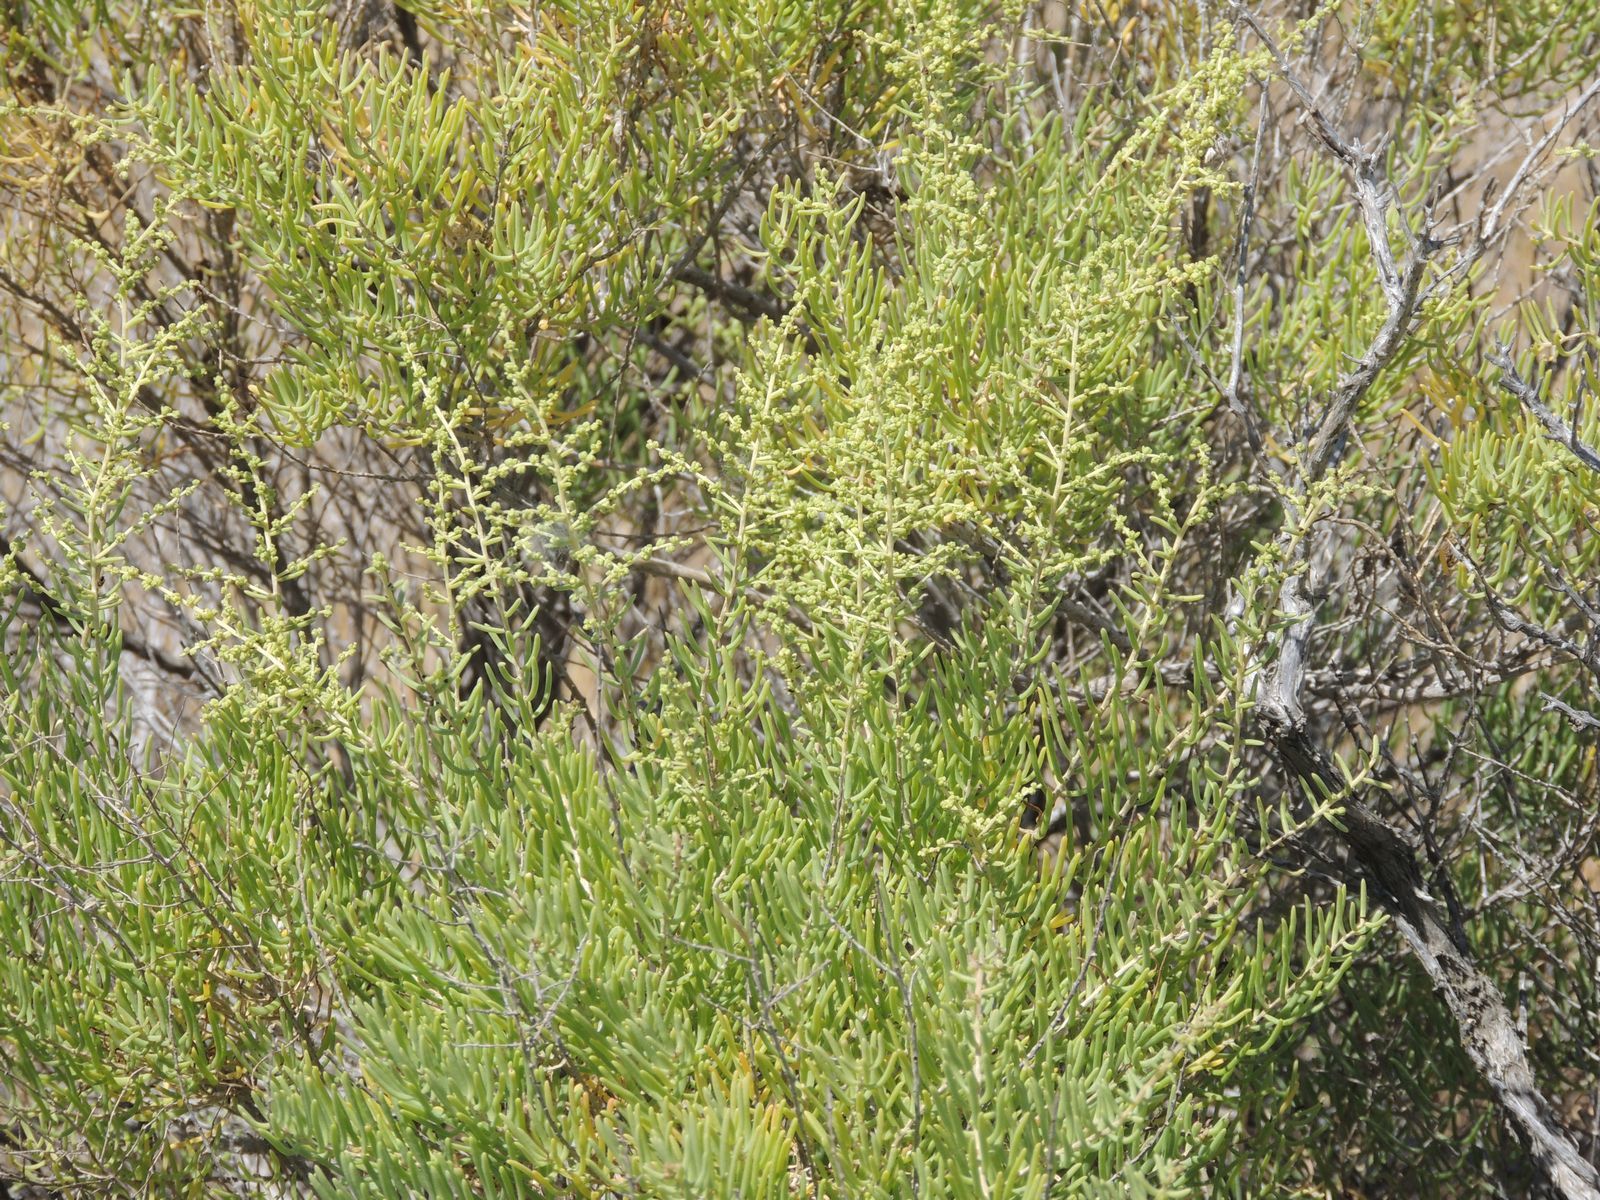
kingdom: Plantae
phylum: Tracheophyta
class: Magnoliopsida
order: Caryophyllales
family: Amaranthaceae
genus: Suaeda
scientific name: Suaeda physophora
